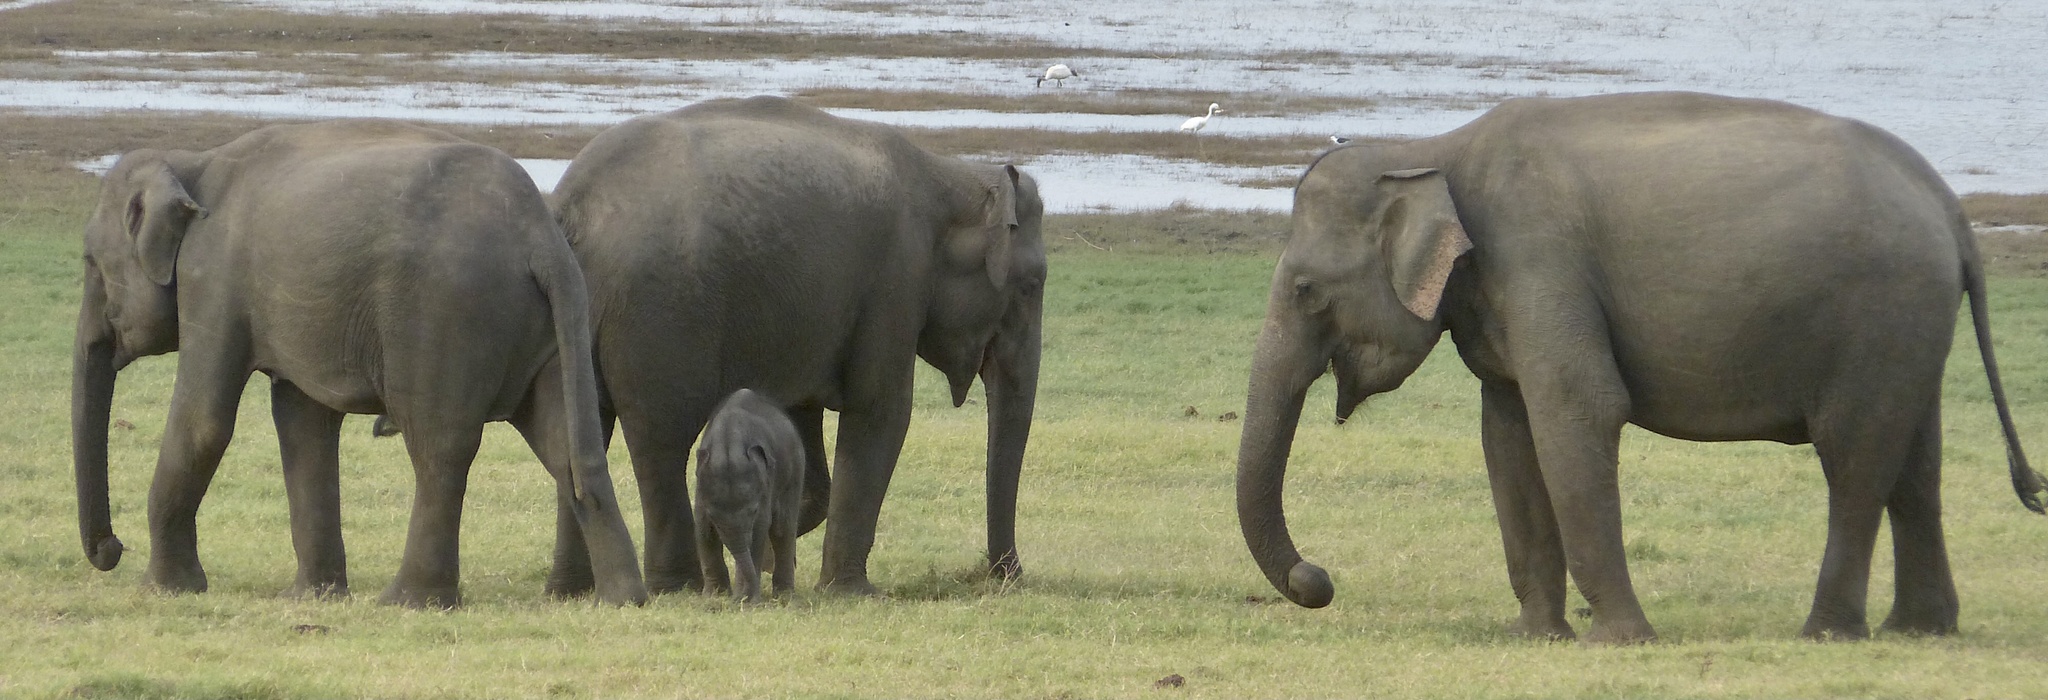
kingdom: Animalia
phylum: Chordata
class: Mammalia
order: Proboscidea
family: Elephantidae
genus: Elephas
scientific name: Elephas maximus
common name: Asian elephant
